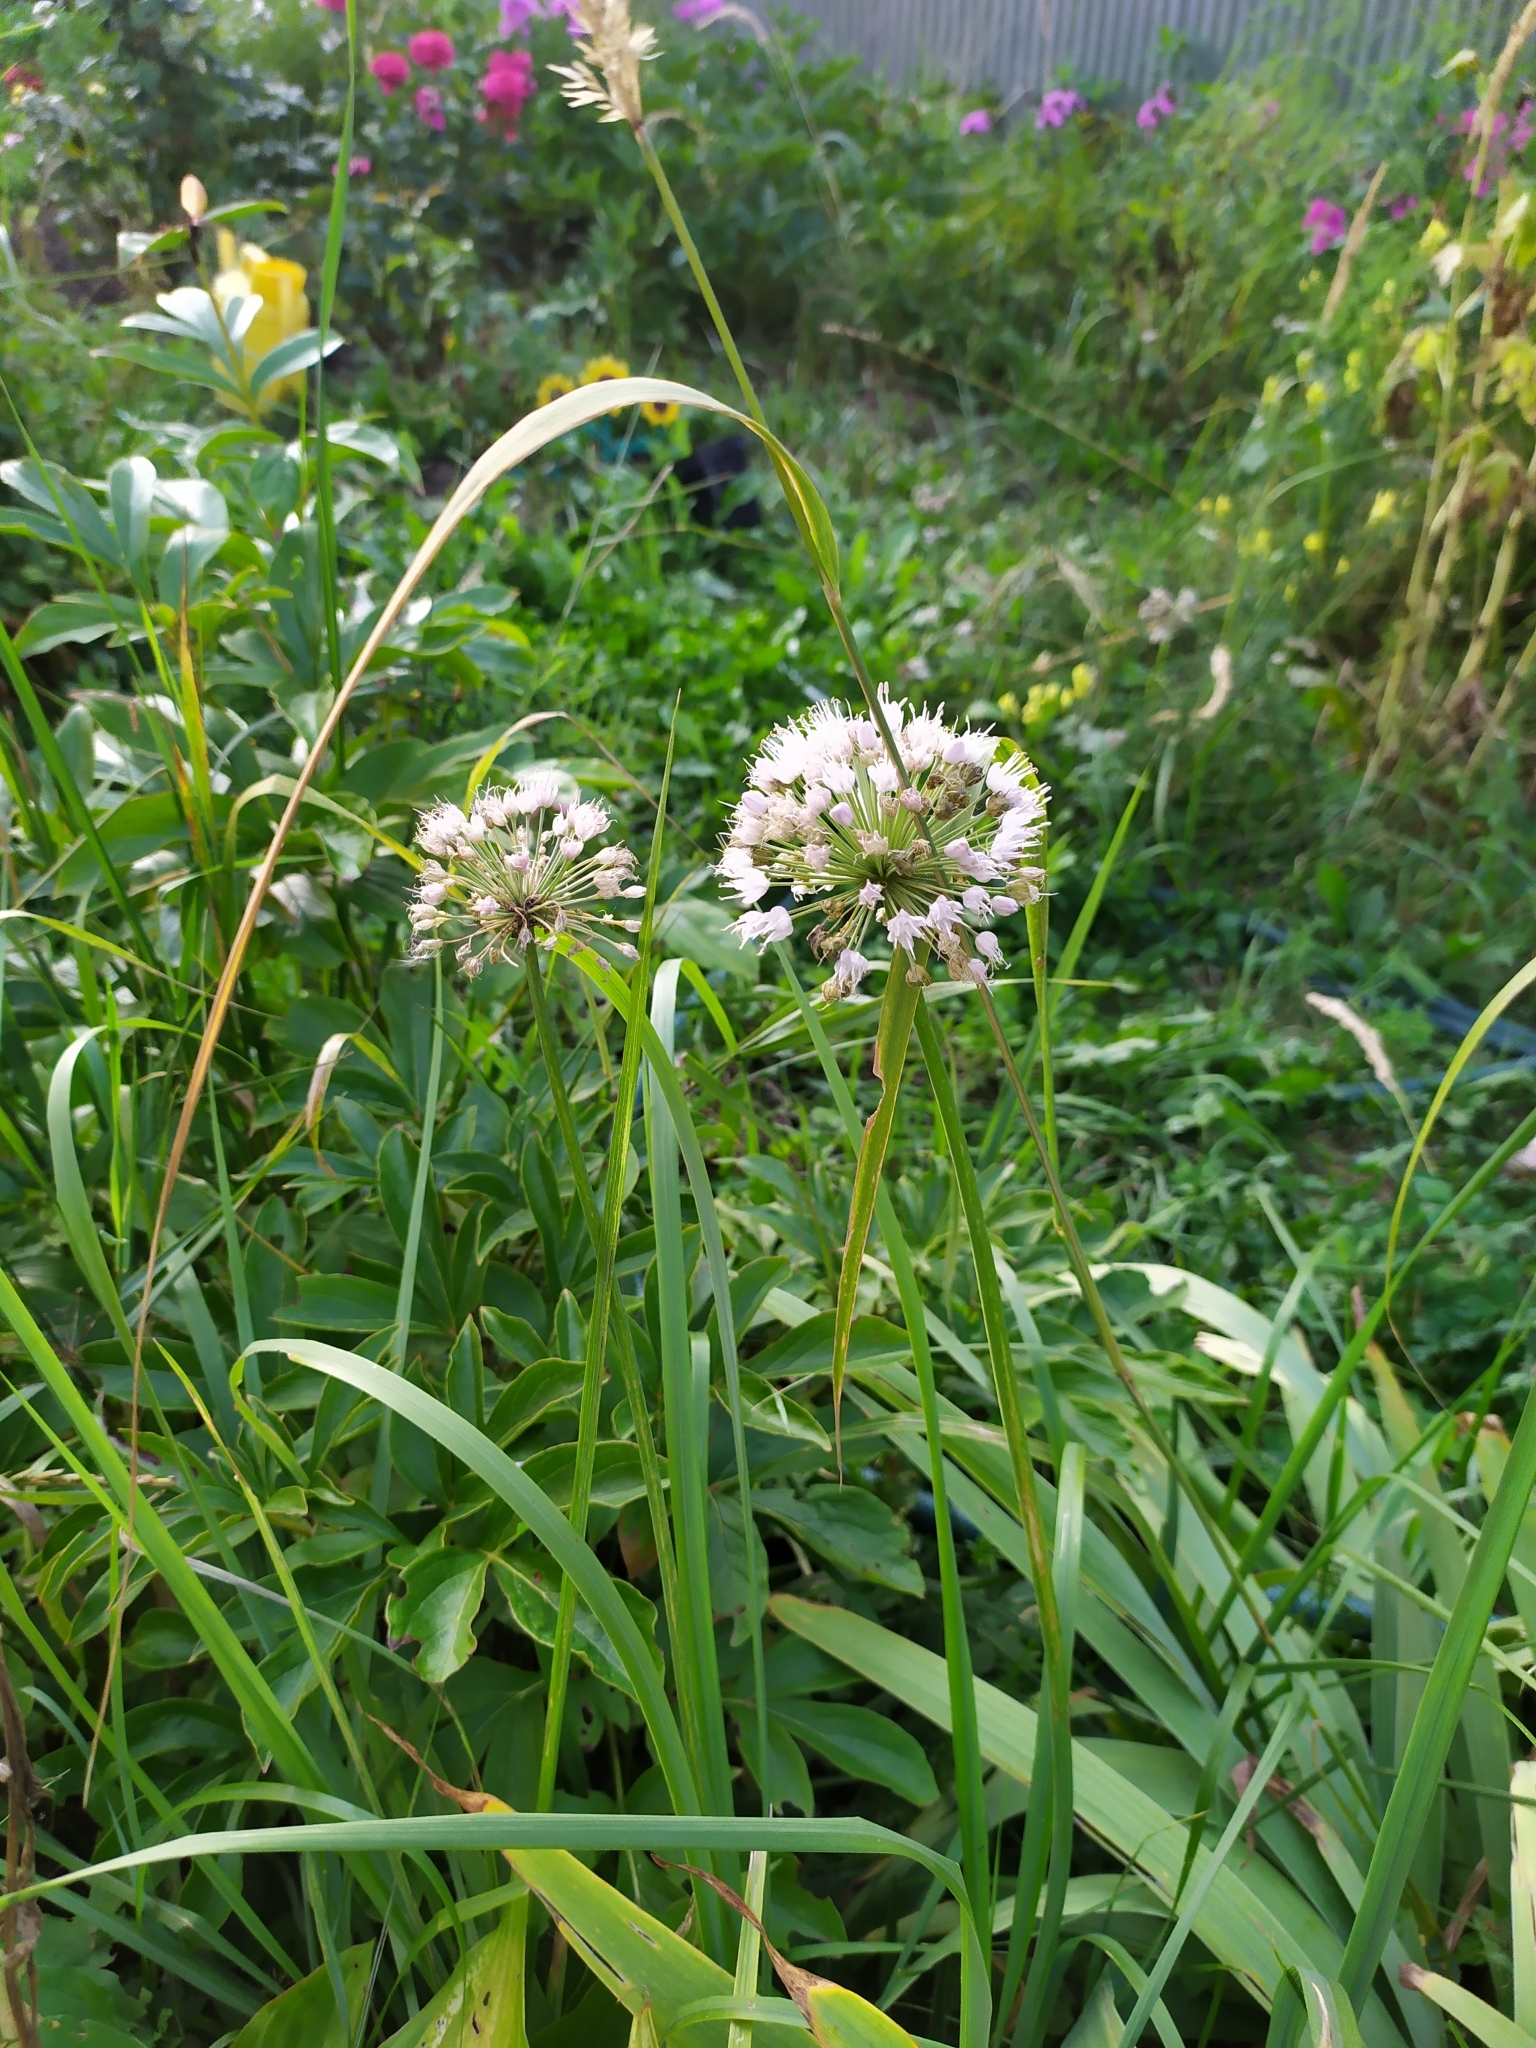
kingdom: Plantae
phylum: Tracheophyta
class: Liliopsida
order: Asparagales
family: Amaryllidaceae
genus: Allium
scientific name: Allium nutans
